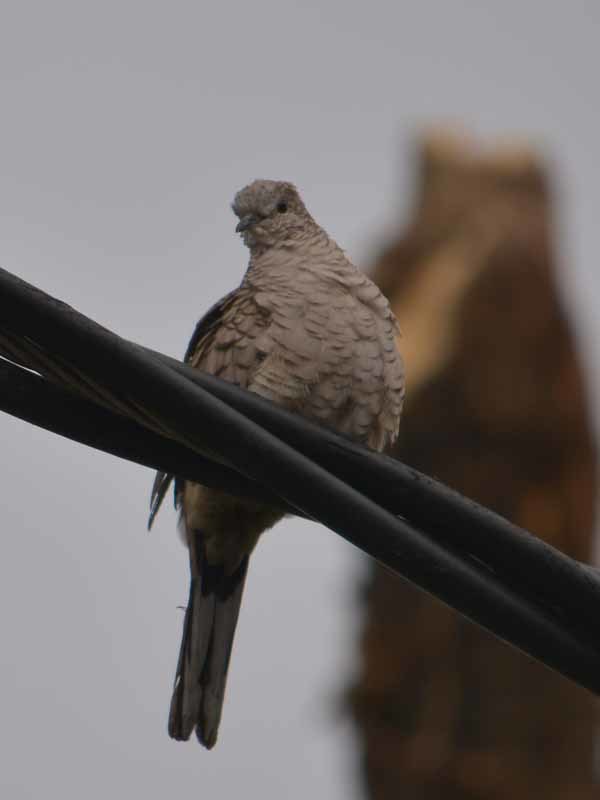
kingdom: Animalia
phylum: Chordata
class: Aves
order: Columbiformes
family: Columbidae
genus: Columbina
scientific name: Columbina inca
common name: Inca dove
